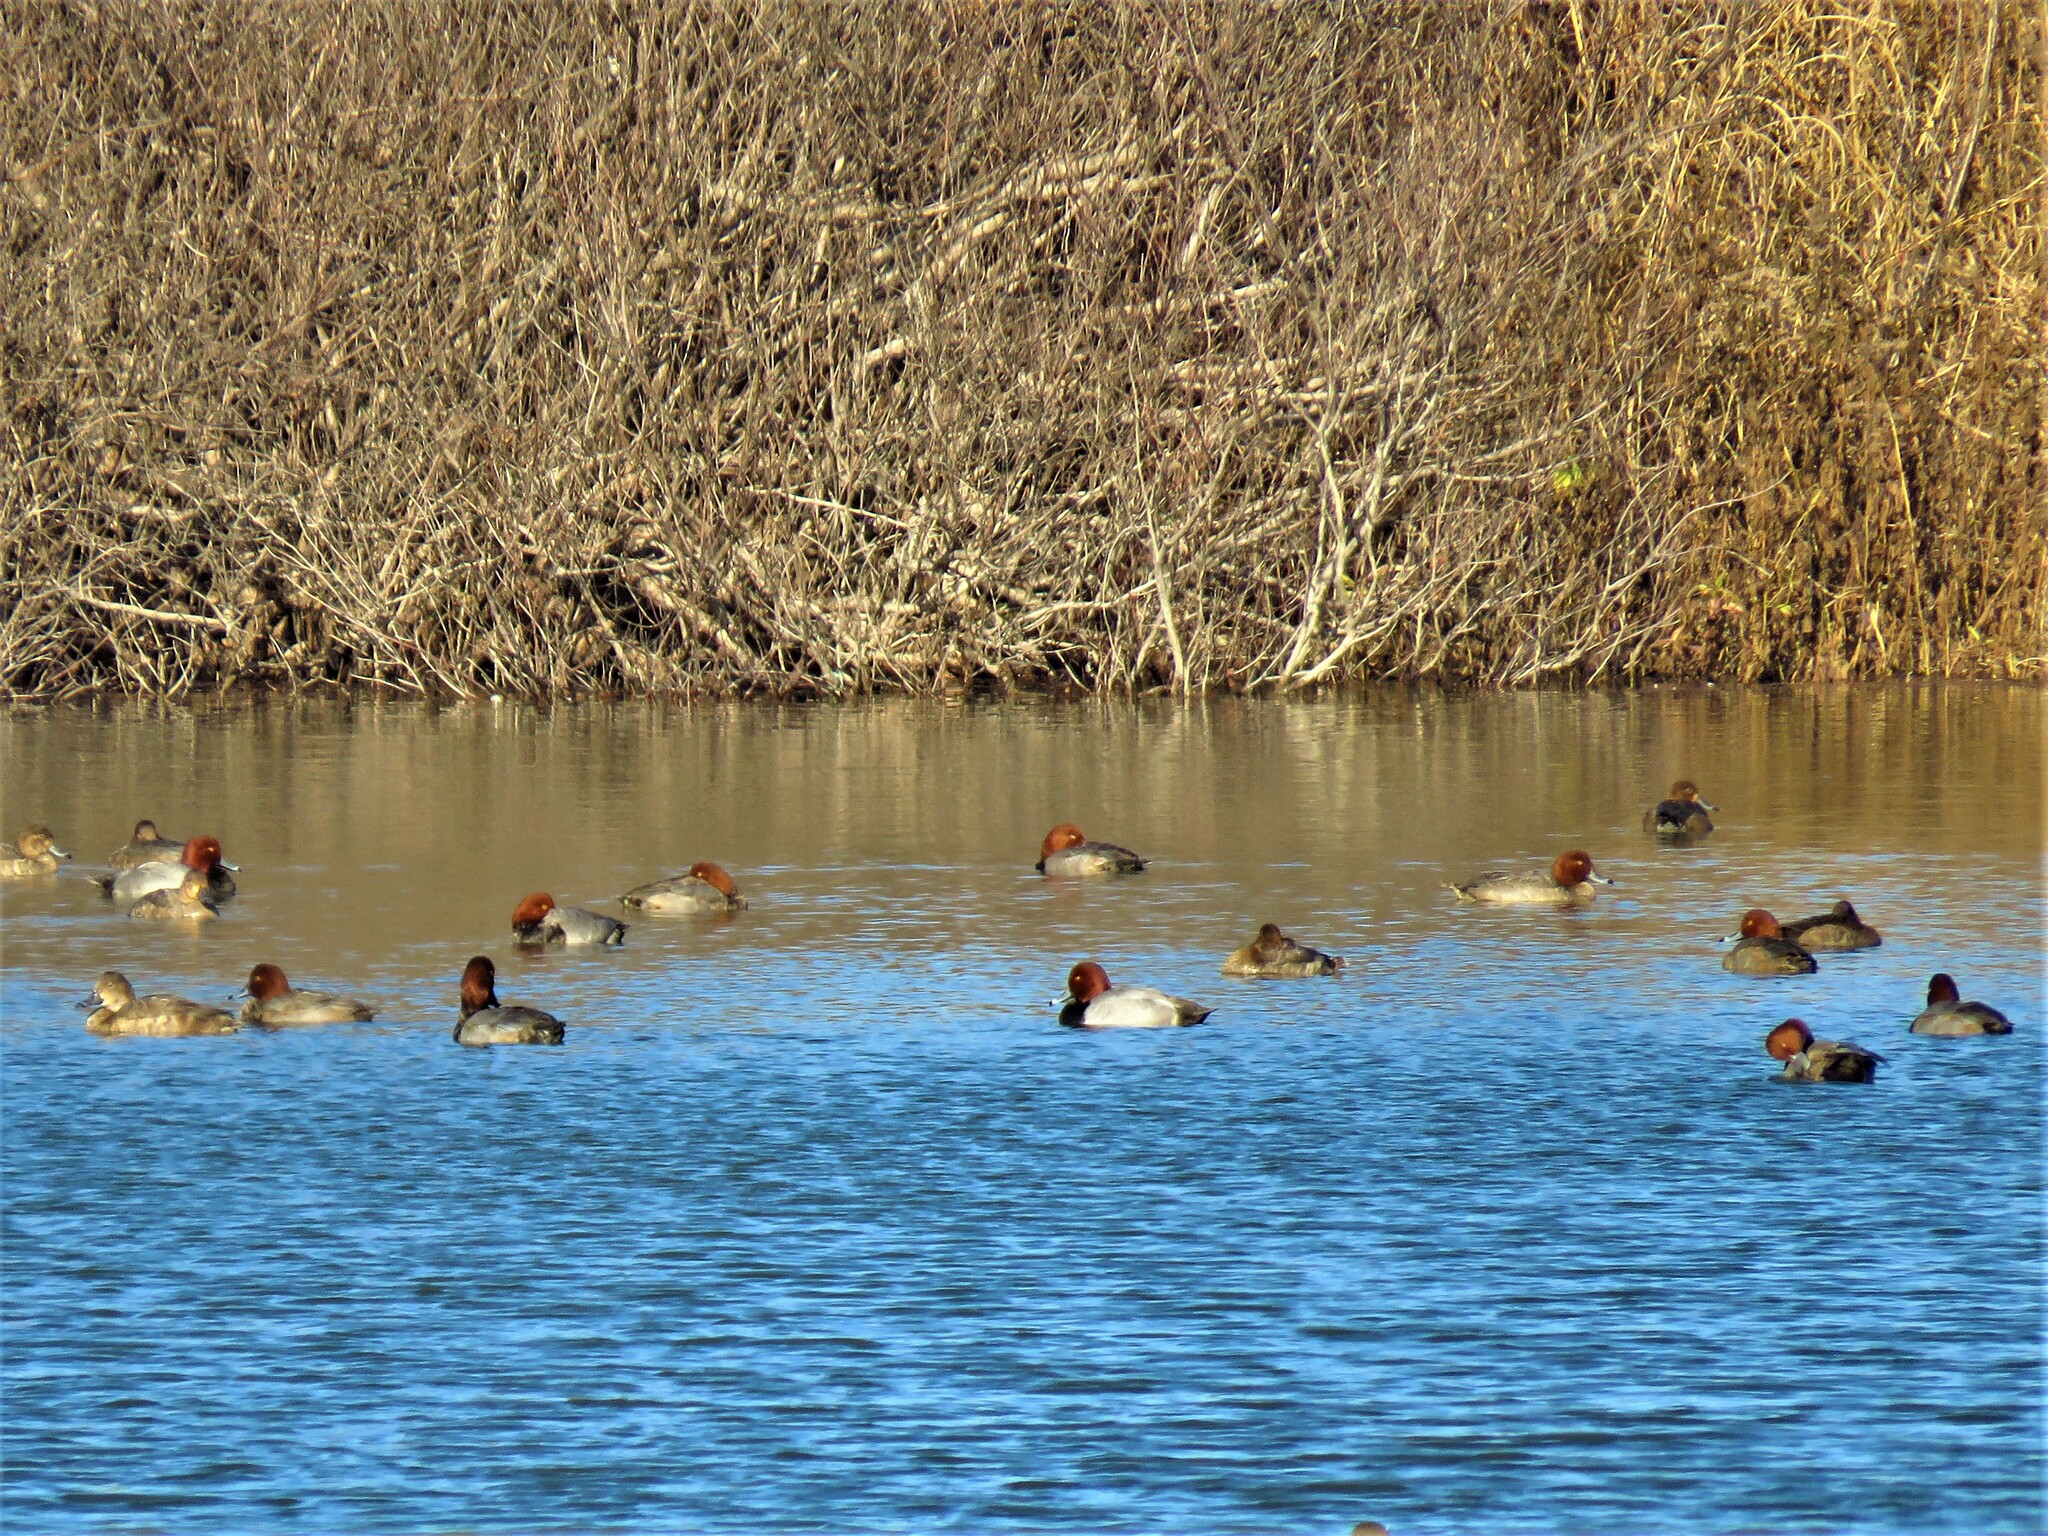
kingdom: Animalia
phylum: Chordata
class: Aves
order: Anseriformes
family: Anatidae
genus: Aythya
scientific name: Aythya americana
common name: Redhead
